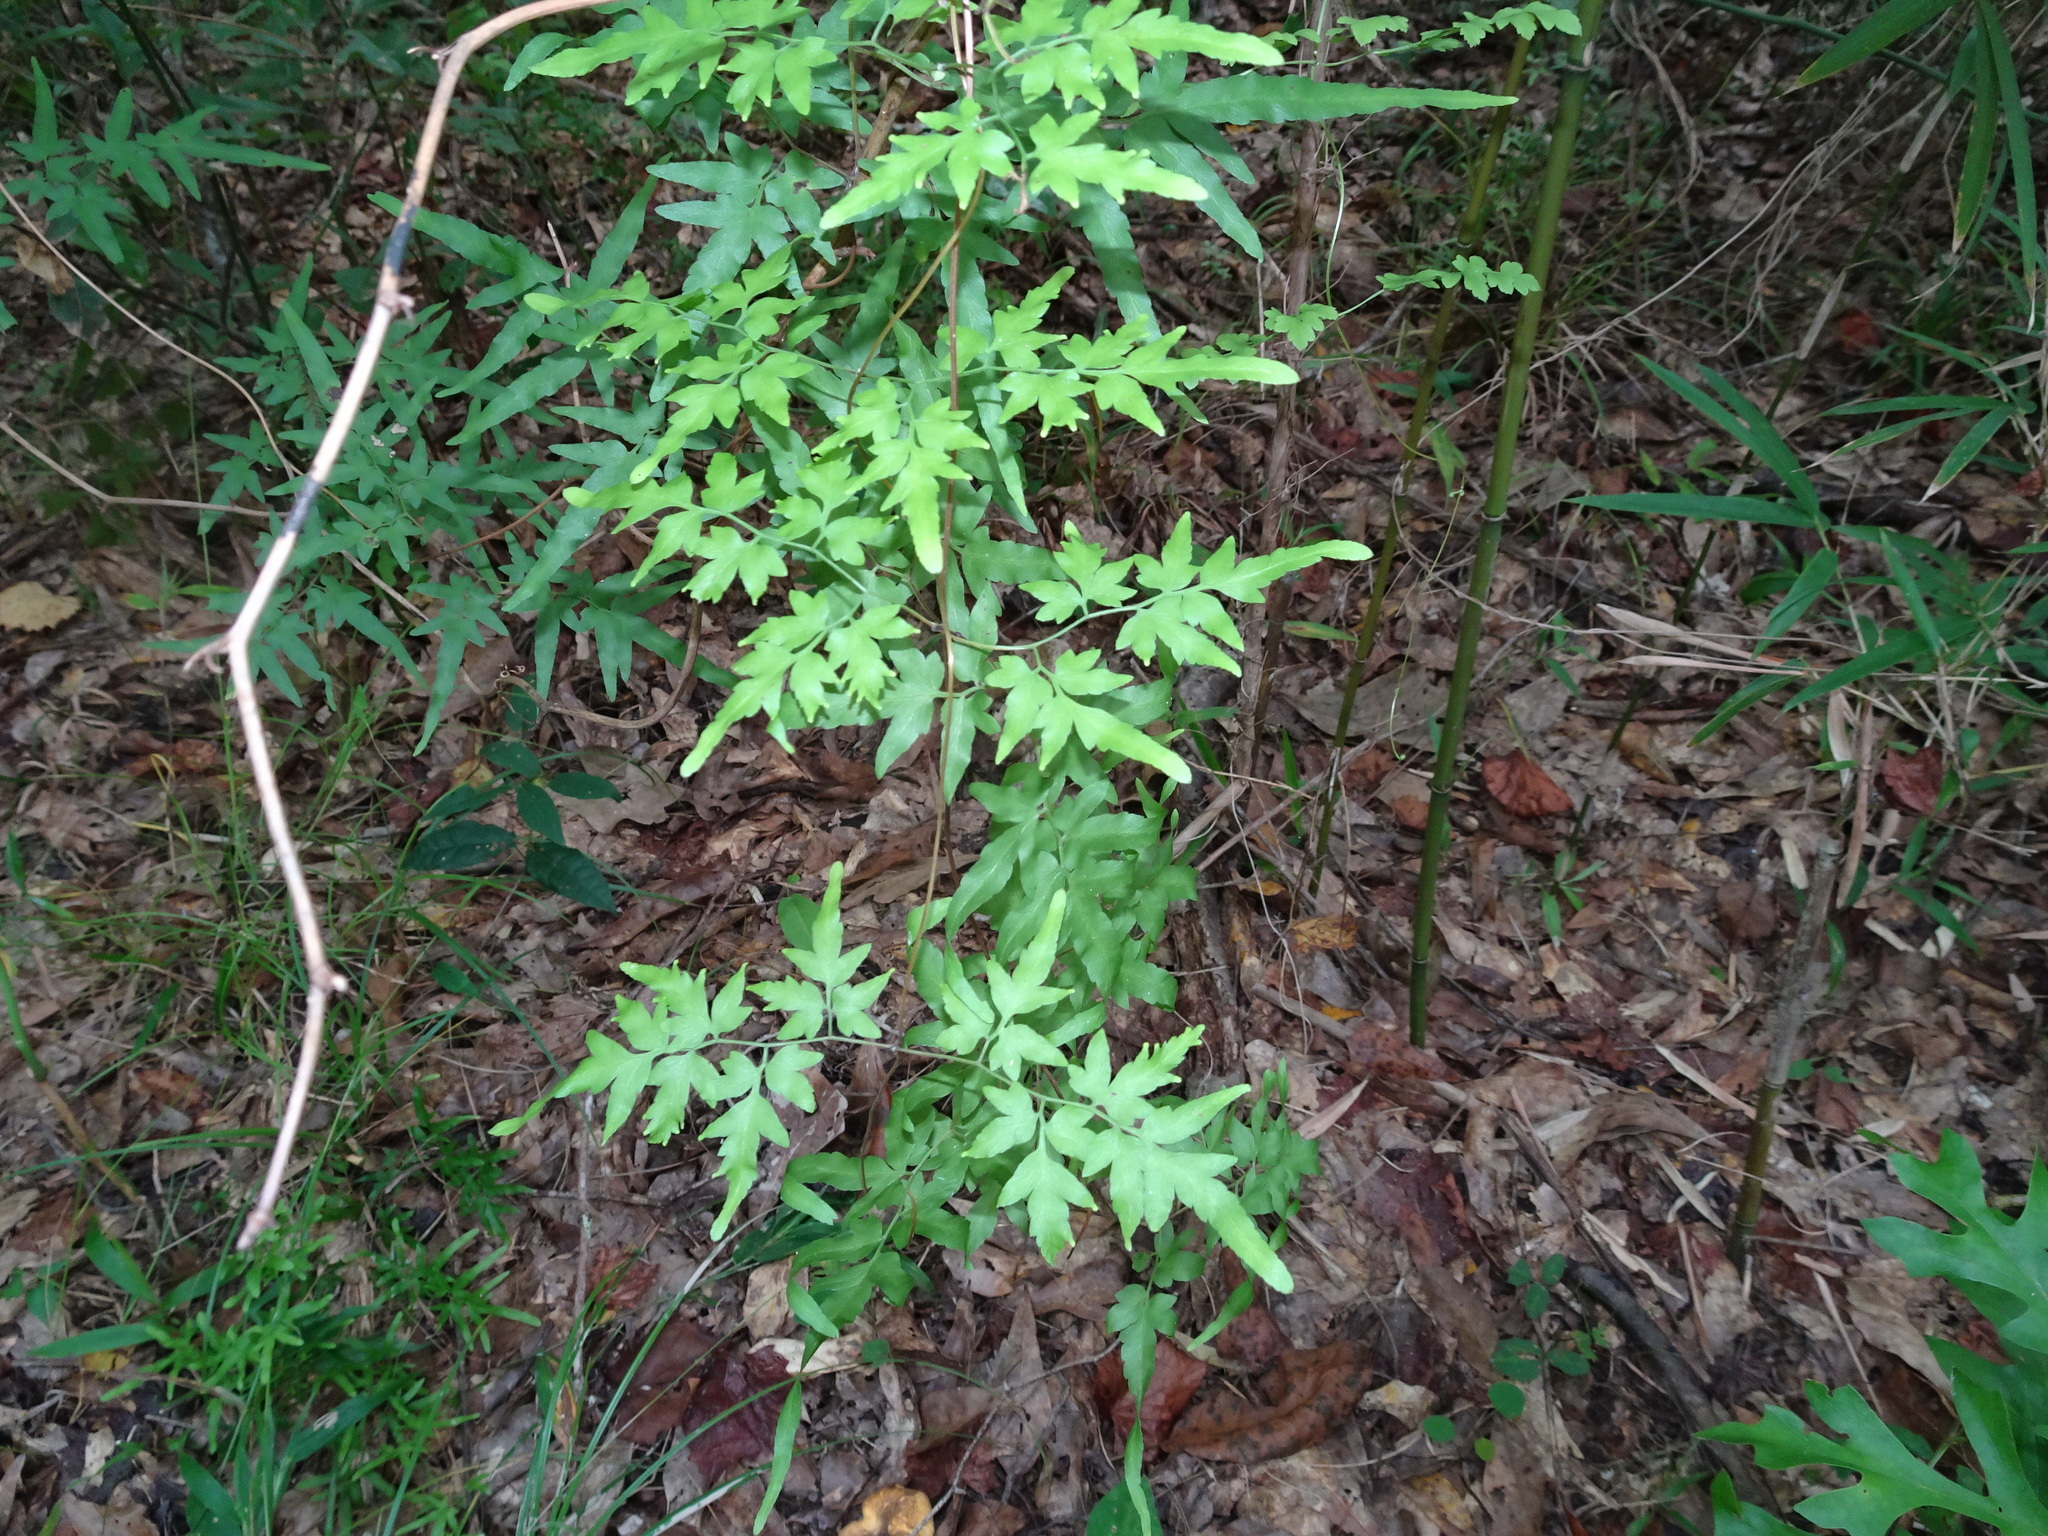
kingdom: Plantae
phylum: Tracheophyta
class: Polypodiopsida
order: Schizaeales
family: Lygodiaceae
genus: Lygodium
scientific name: Lygodium japonicum
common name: Japanese climbing fern
